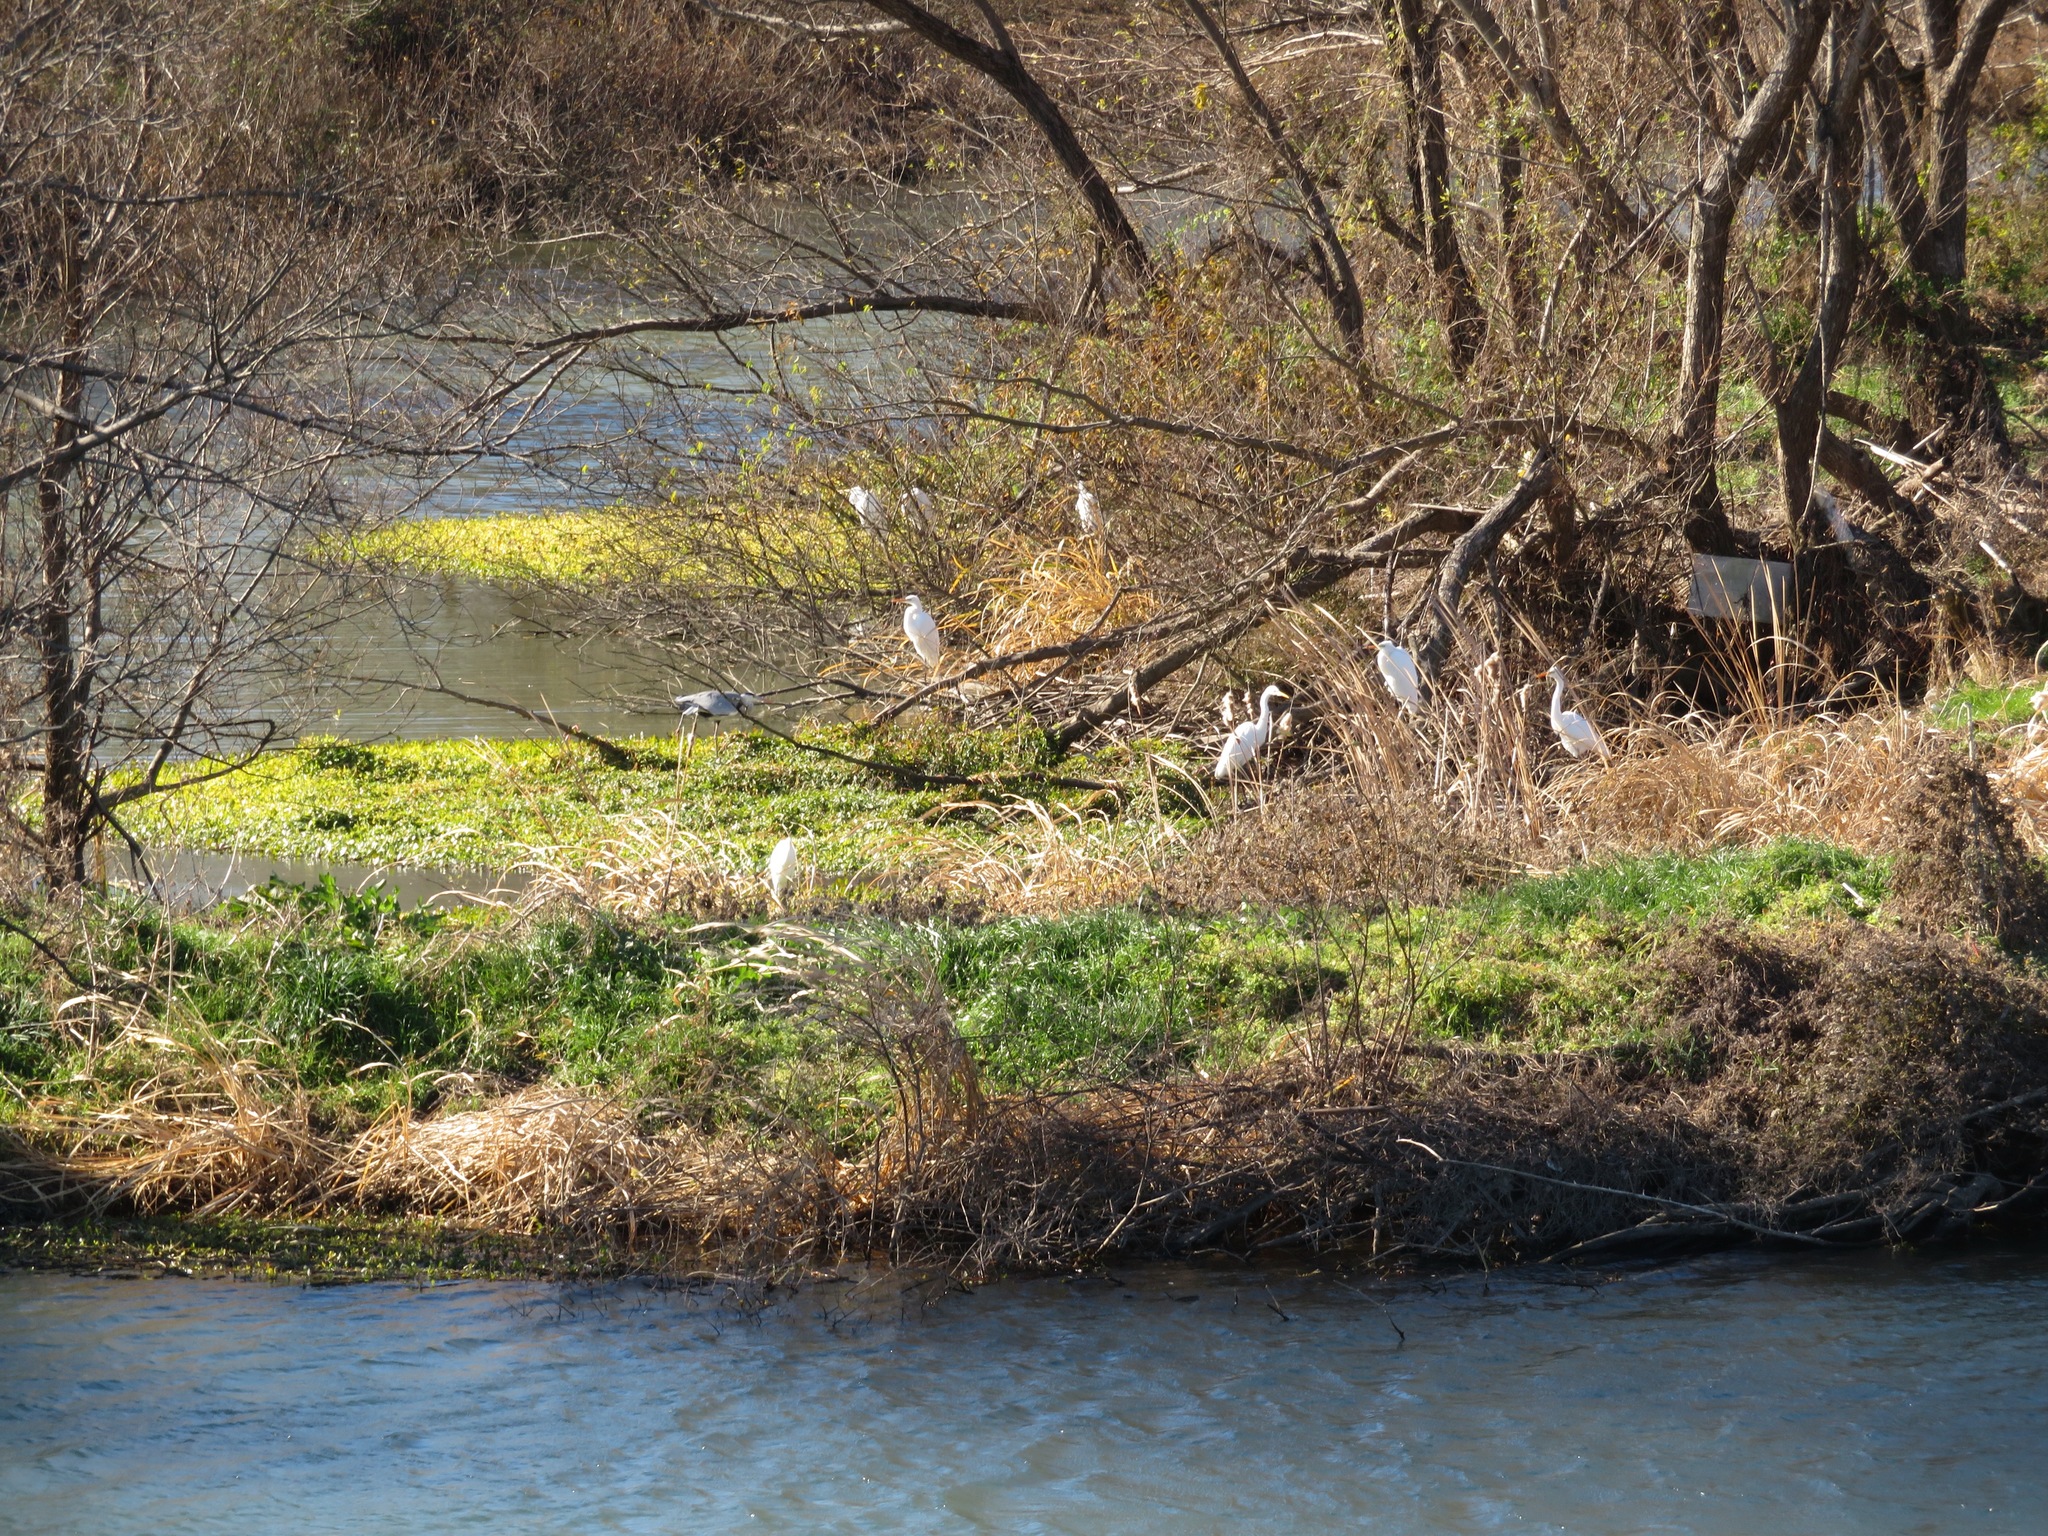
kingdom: Animalia
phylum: Chordata
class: Aves
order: Pelecaniformes
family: Ardeidae
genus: Ardea
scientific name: Ardea alba
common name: Great egret
